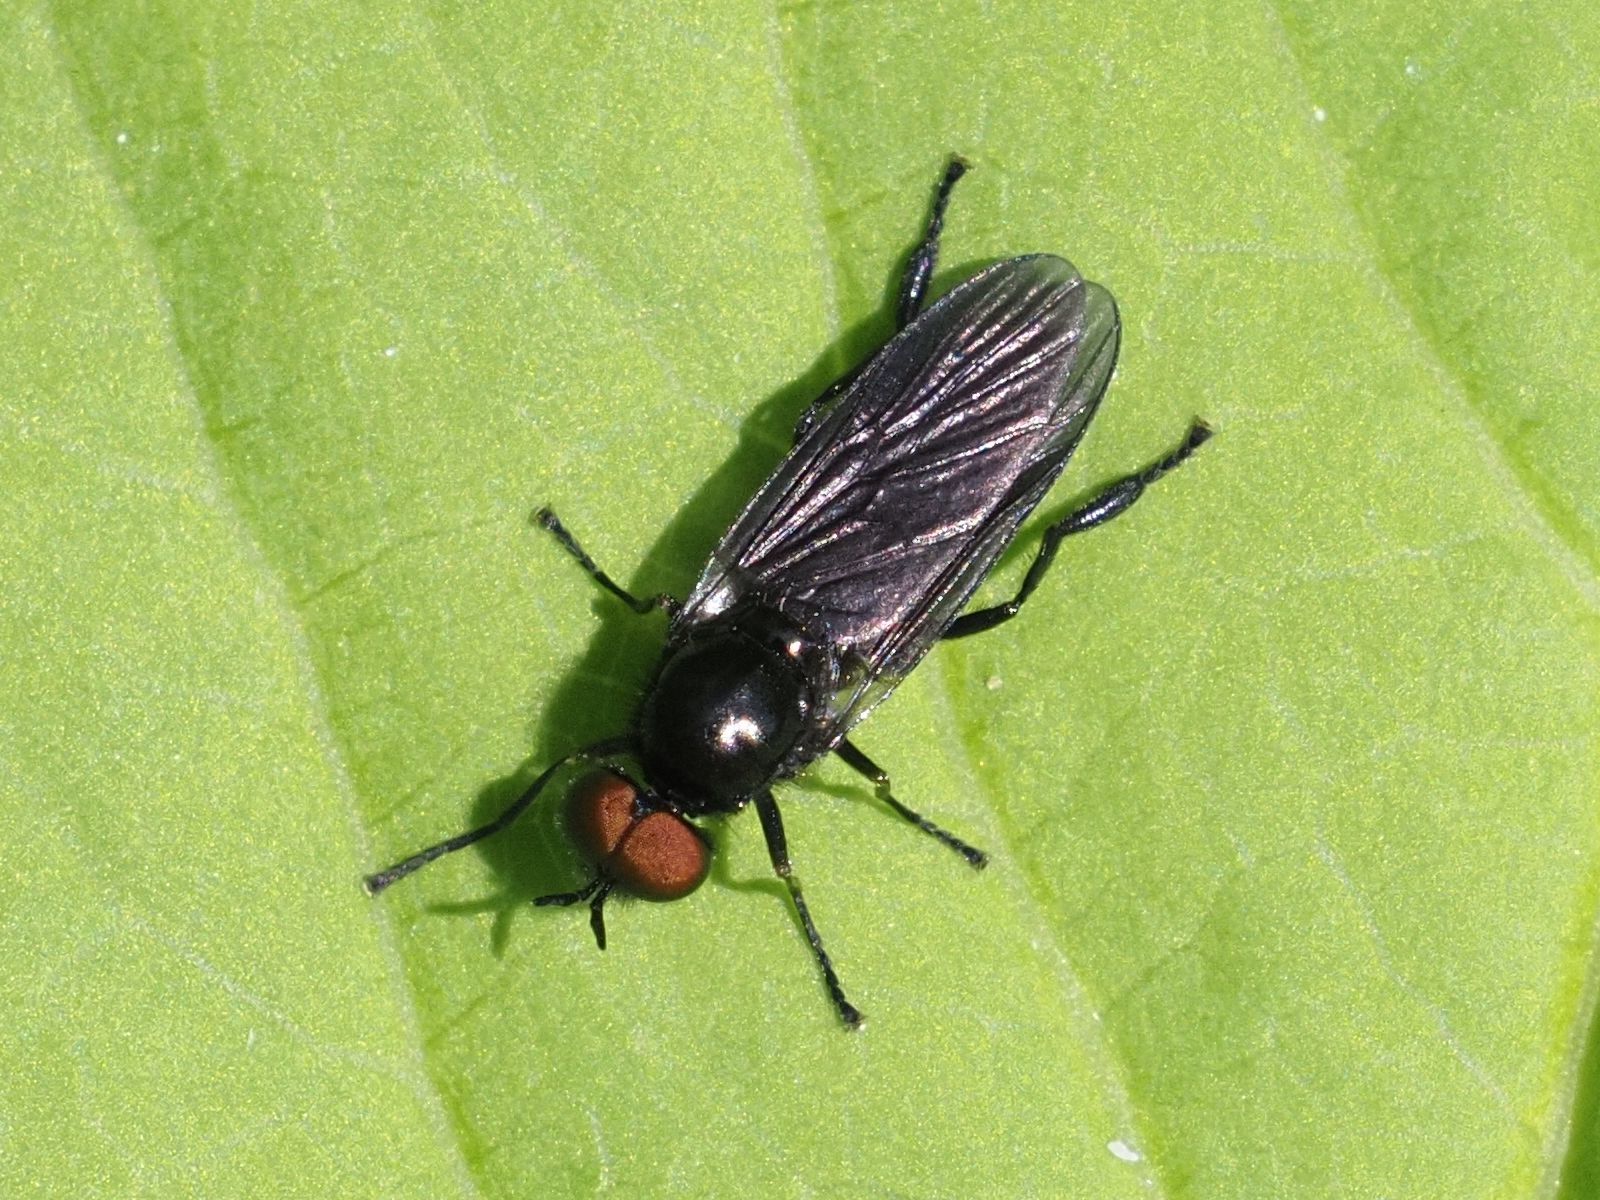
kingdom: Animalia
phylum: Arthropoda
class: Insecta
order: Diptera
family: Stratiomyidae
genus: Beris
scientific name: Beris chalybata
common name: Murky-legged black legionnaire
